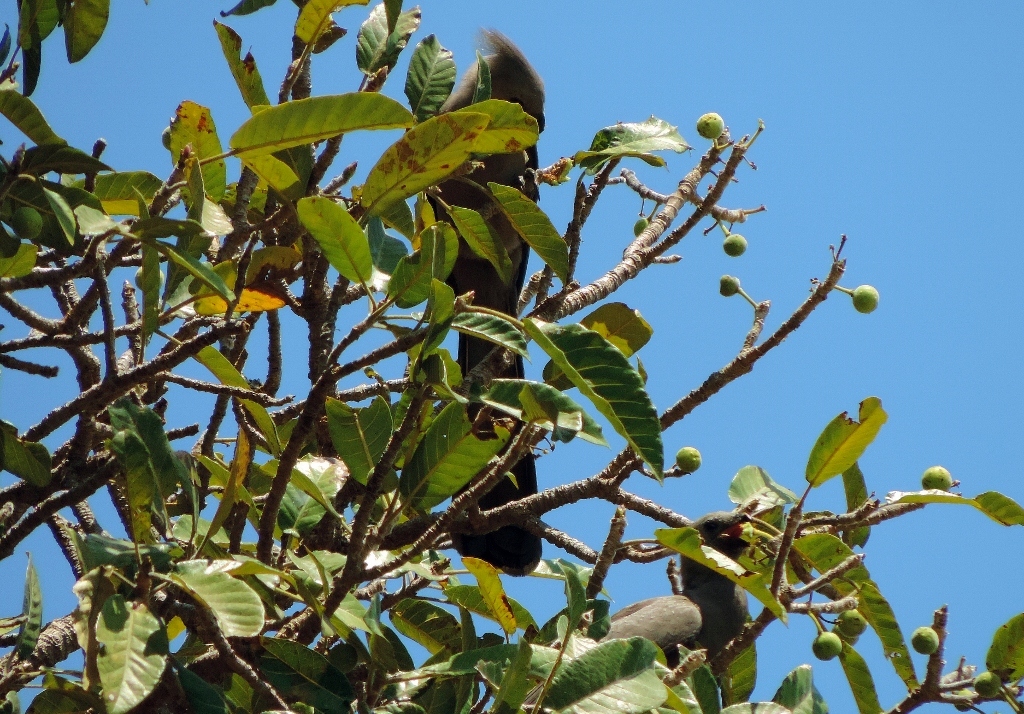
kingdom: Animalia
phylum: Chordata
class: Aves
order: Musophagiformes
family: Musophagidae
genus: Corythaixoides
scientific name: Corythaixoides concolor
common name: Grey go-away-bird
